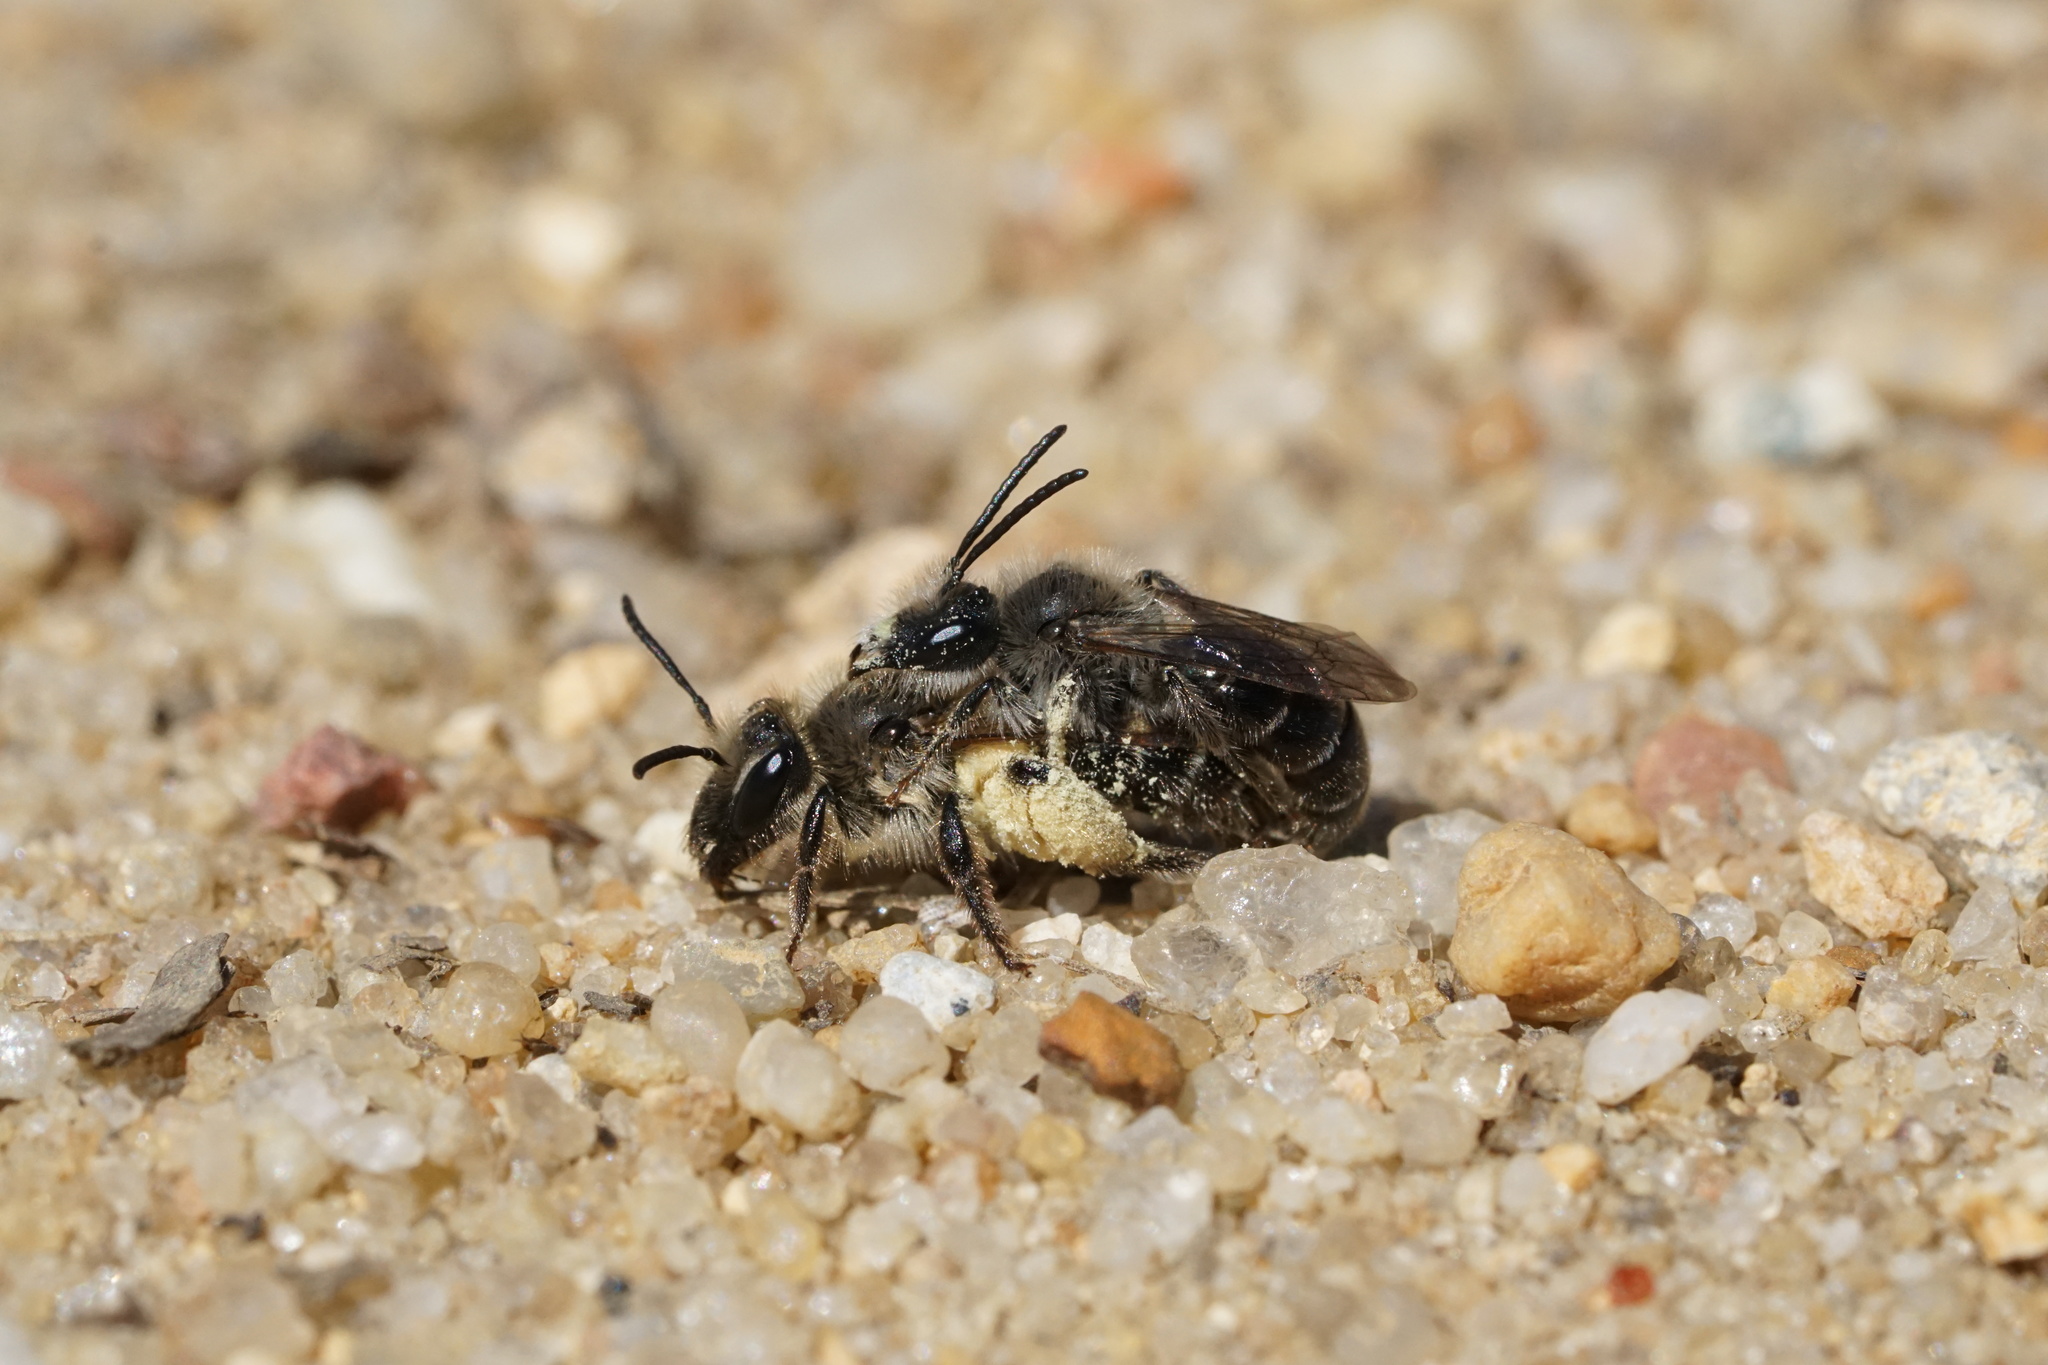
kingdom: Animalia
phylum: Arthropoda
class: Insecta
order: Hymenoptera
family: Andrenidae
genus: Andrena
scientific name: Andrena bradleyi
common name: Bradley's mining bee
